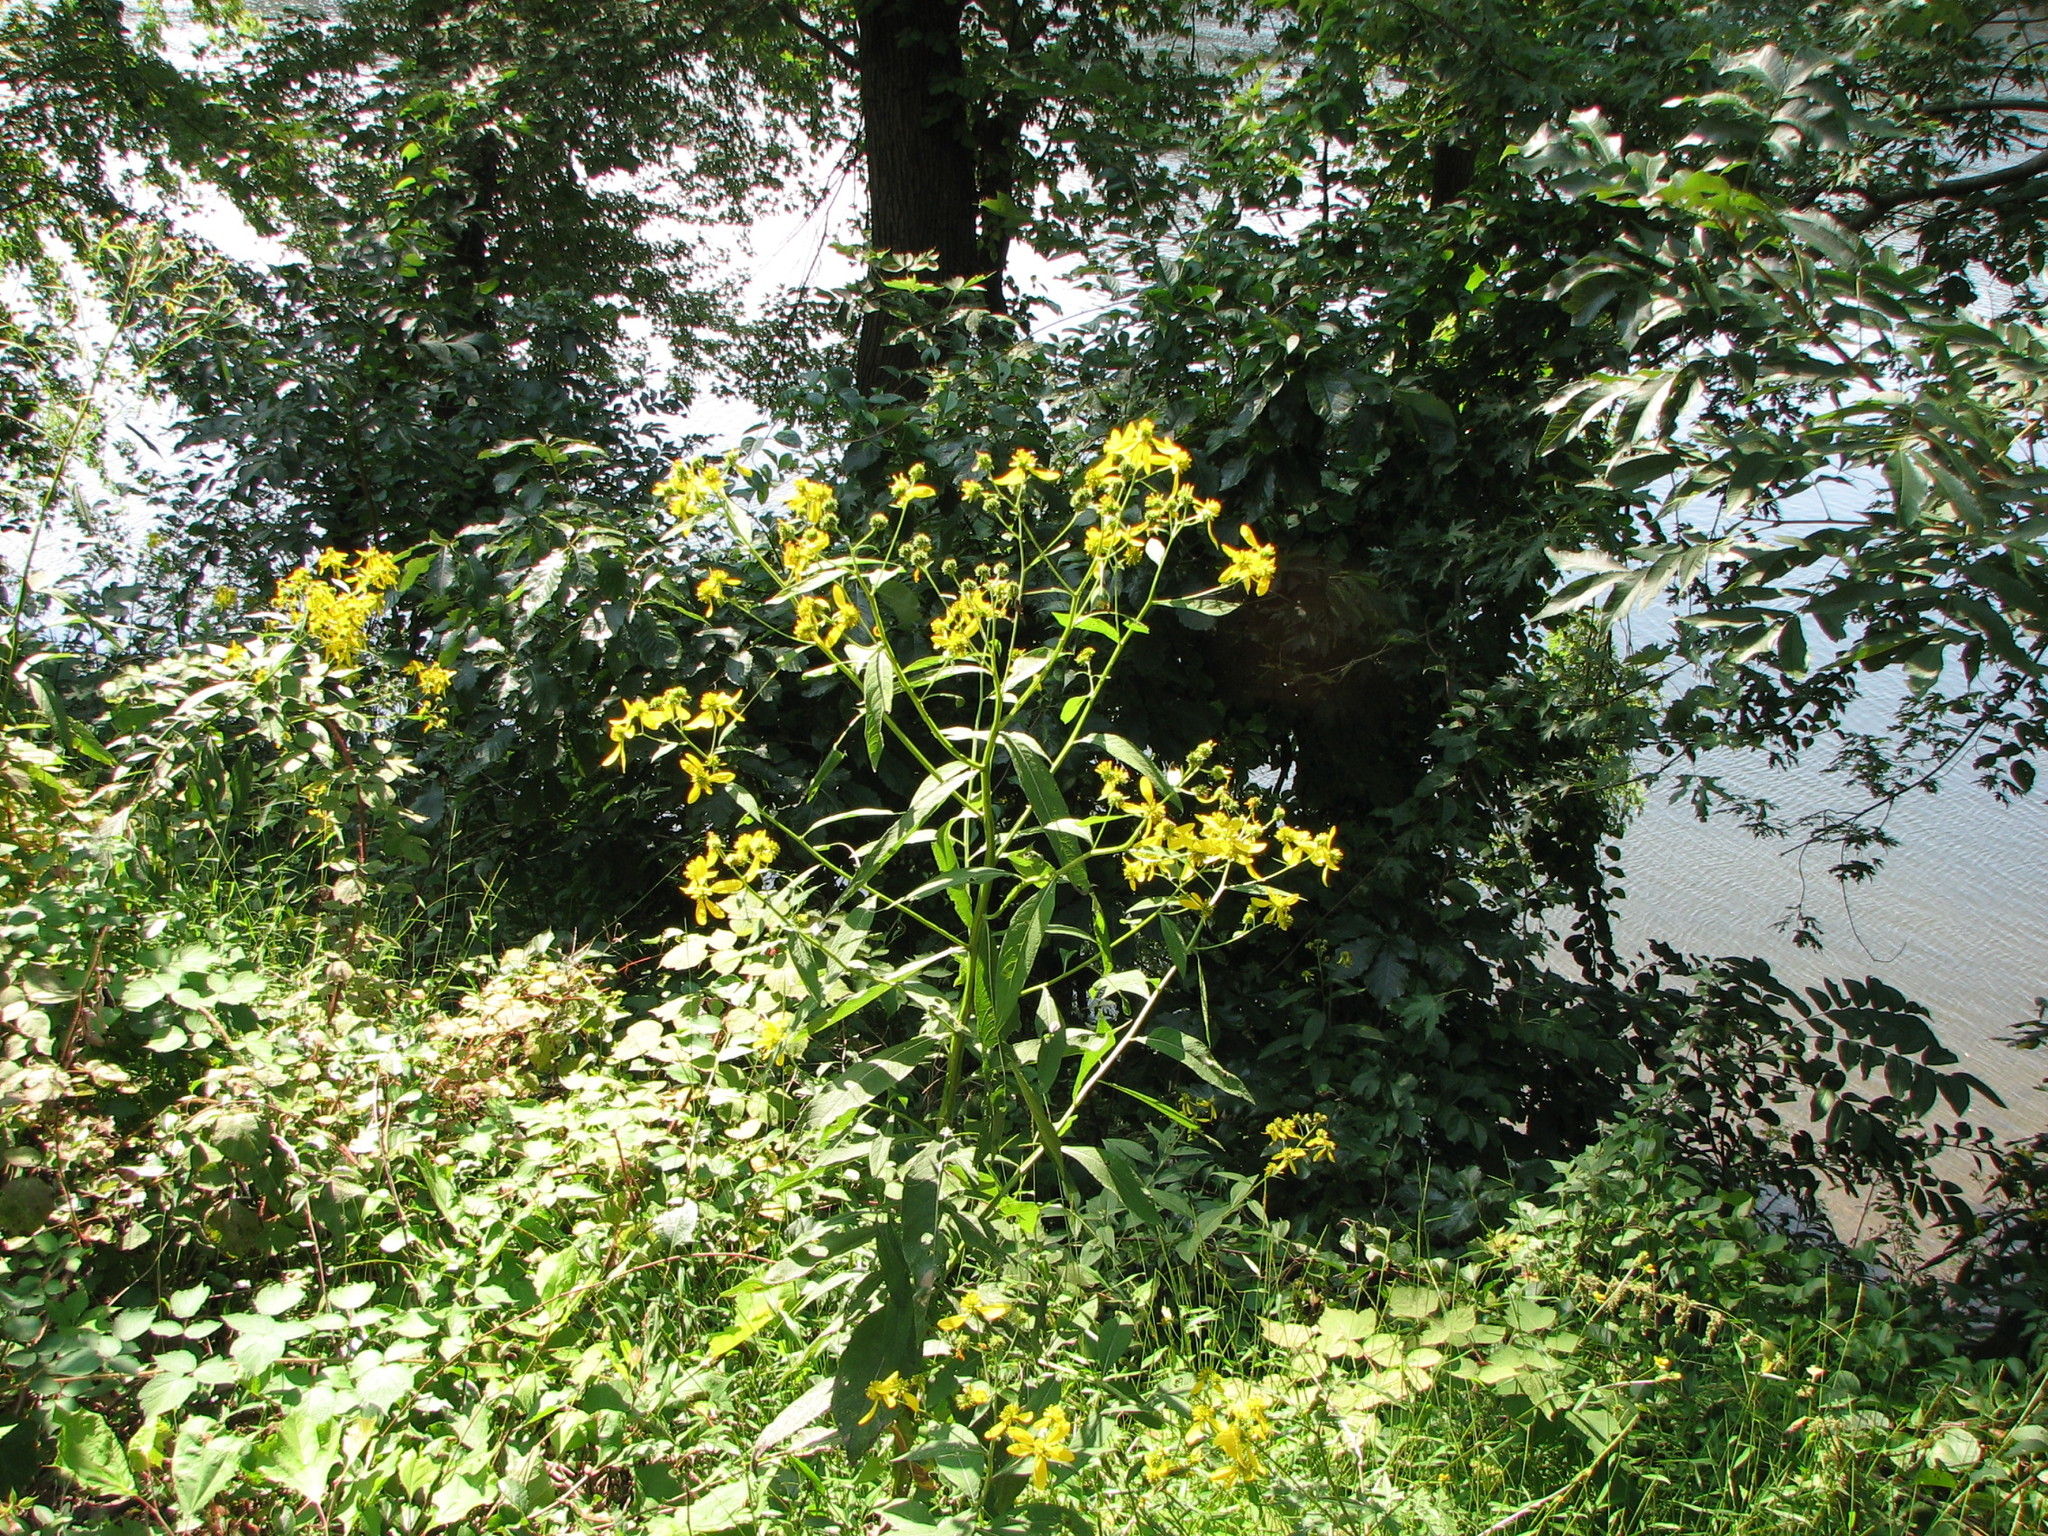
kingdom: Plantae
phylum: Tracheophyta
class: Magnoliopsida
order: Asterales
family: Asteraceae
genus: Verbesina
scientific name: Verbesina alternifolia
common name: Wingstem
